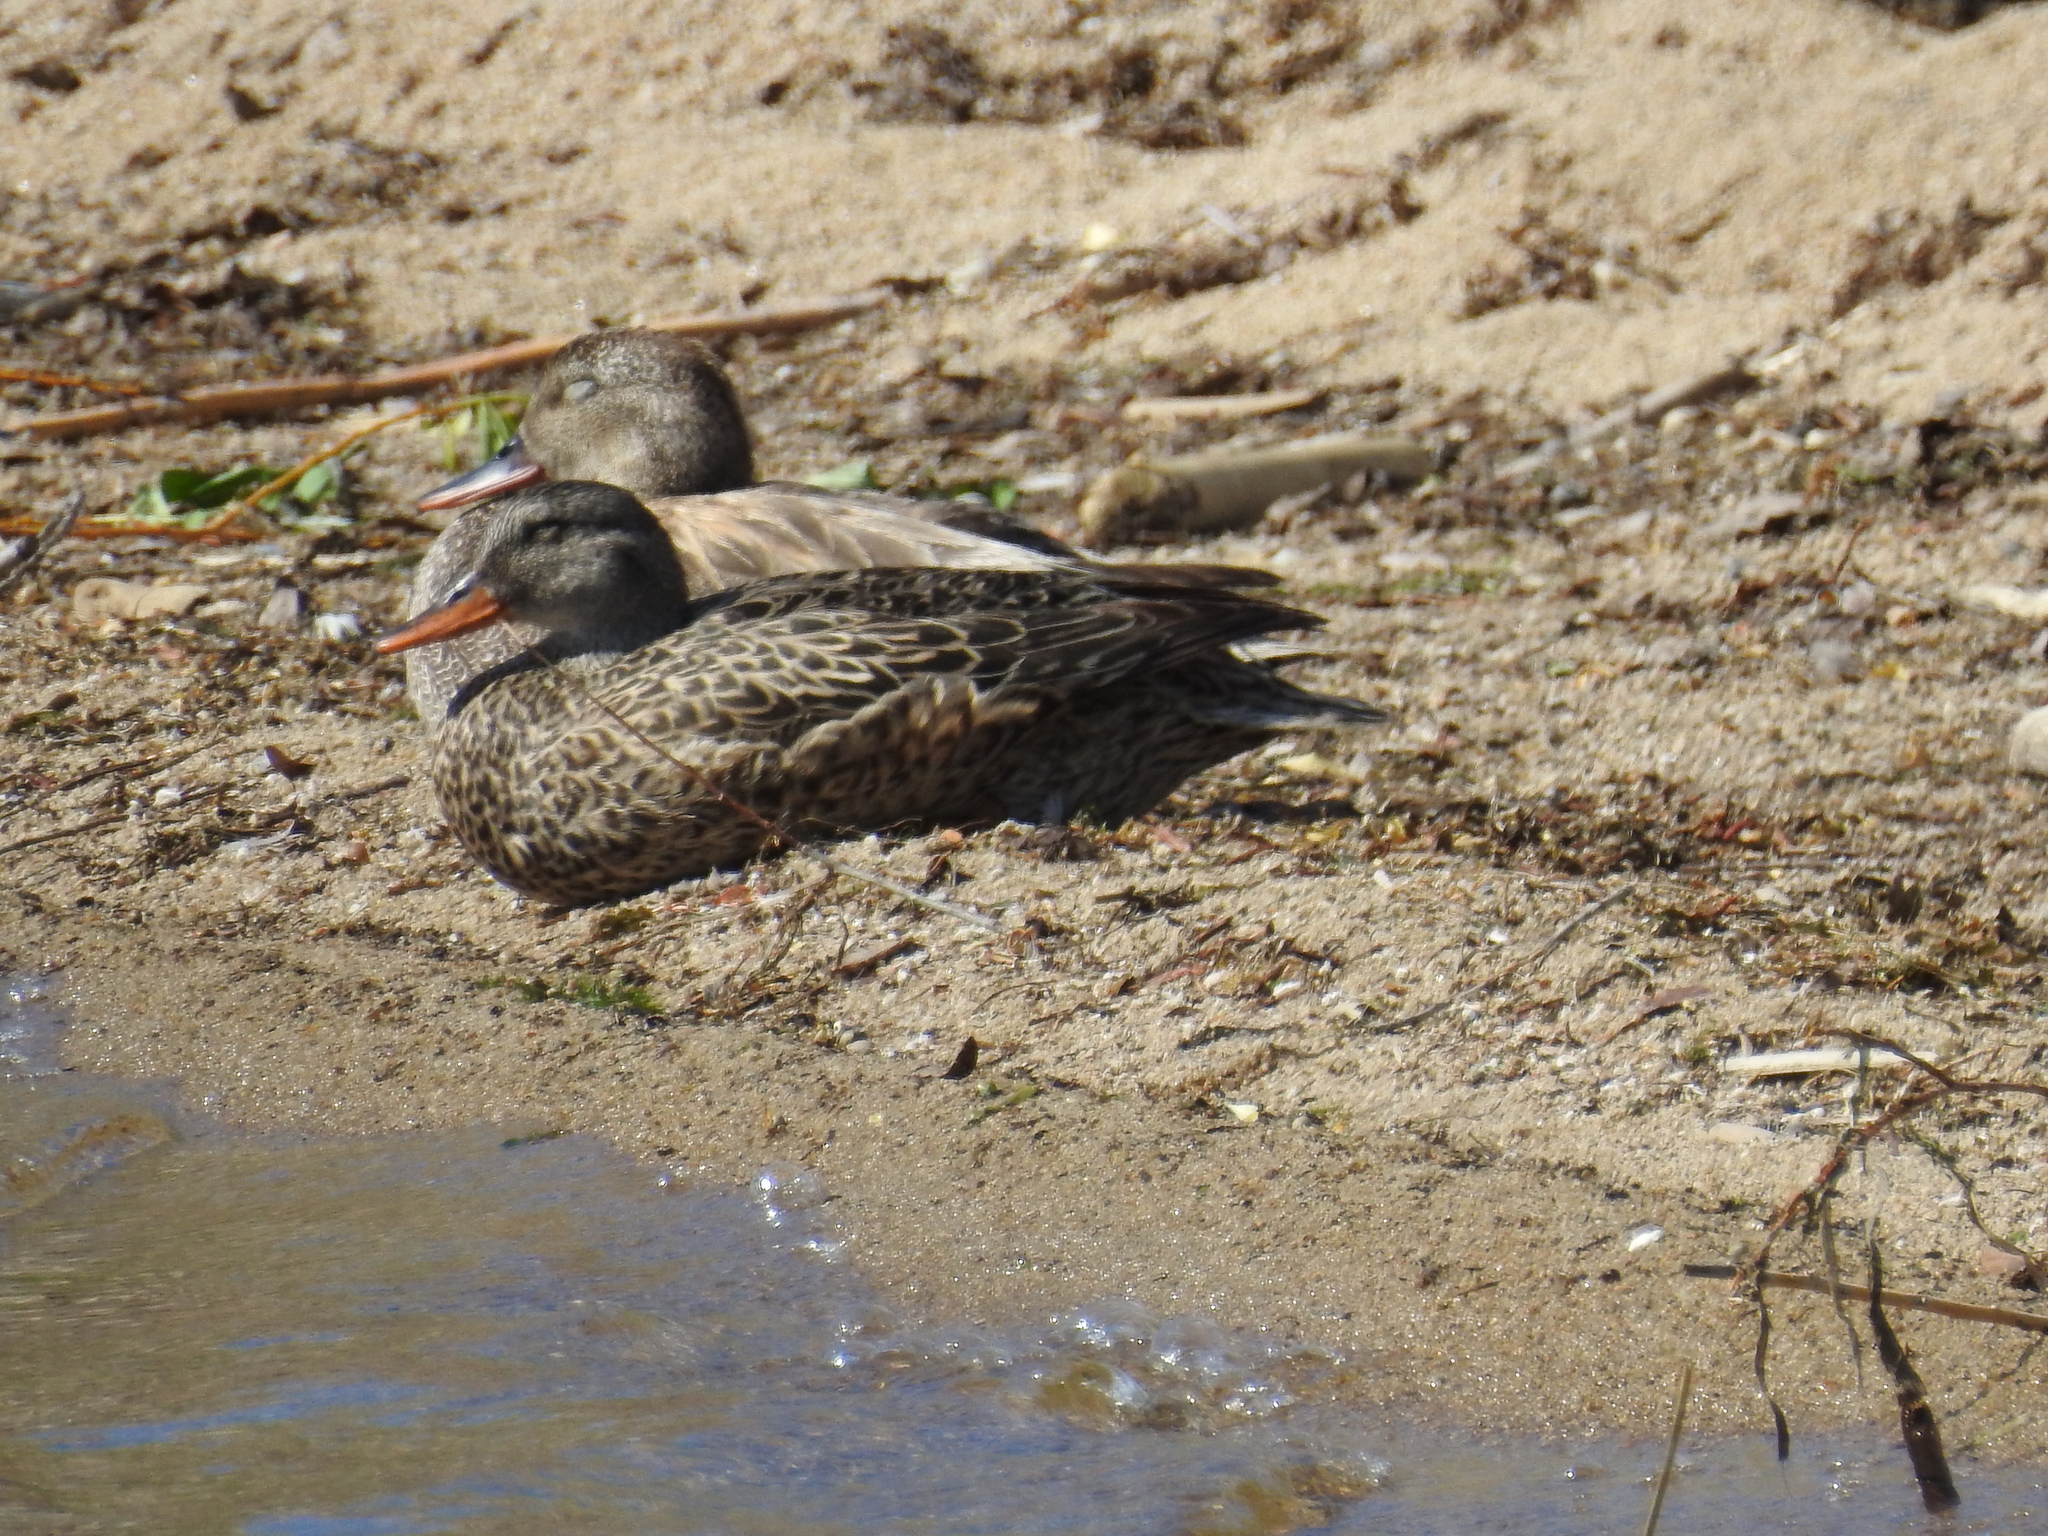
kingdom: Animalia
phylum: Chordata
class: Aves
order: Anseriformes
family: Anatidae
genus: Mareca
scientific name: Mareca strepera
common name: Gadwall
